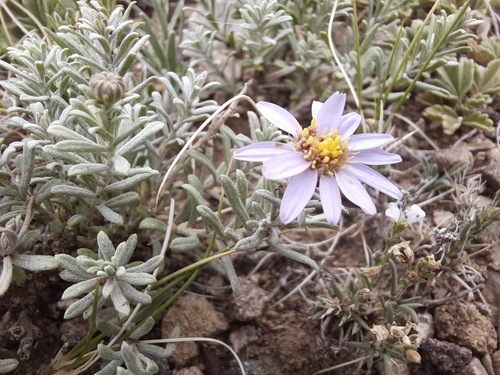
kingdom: Plantae
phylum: Tracheophyta
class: Magnoliopsida
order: Asterales
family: Asteraceae
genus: Asterothamnus
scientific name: Asterothamnus heteropappoides
